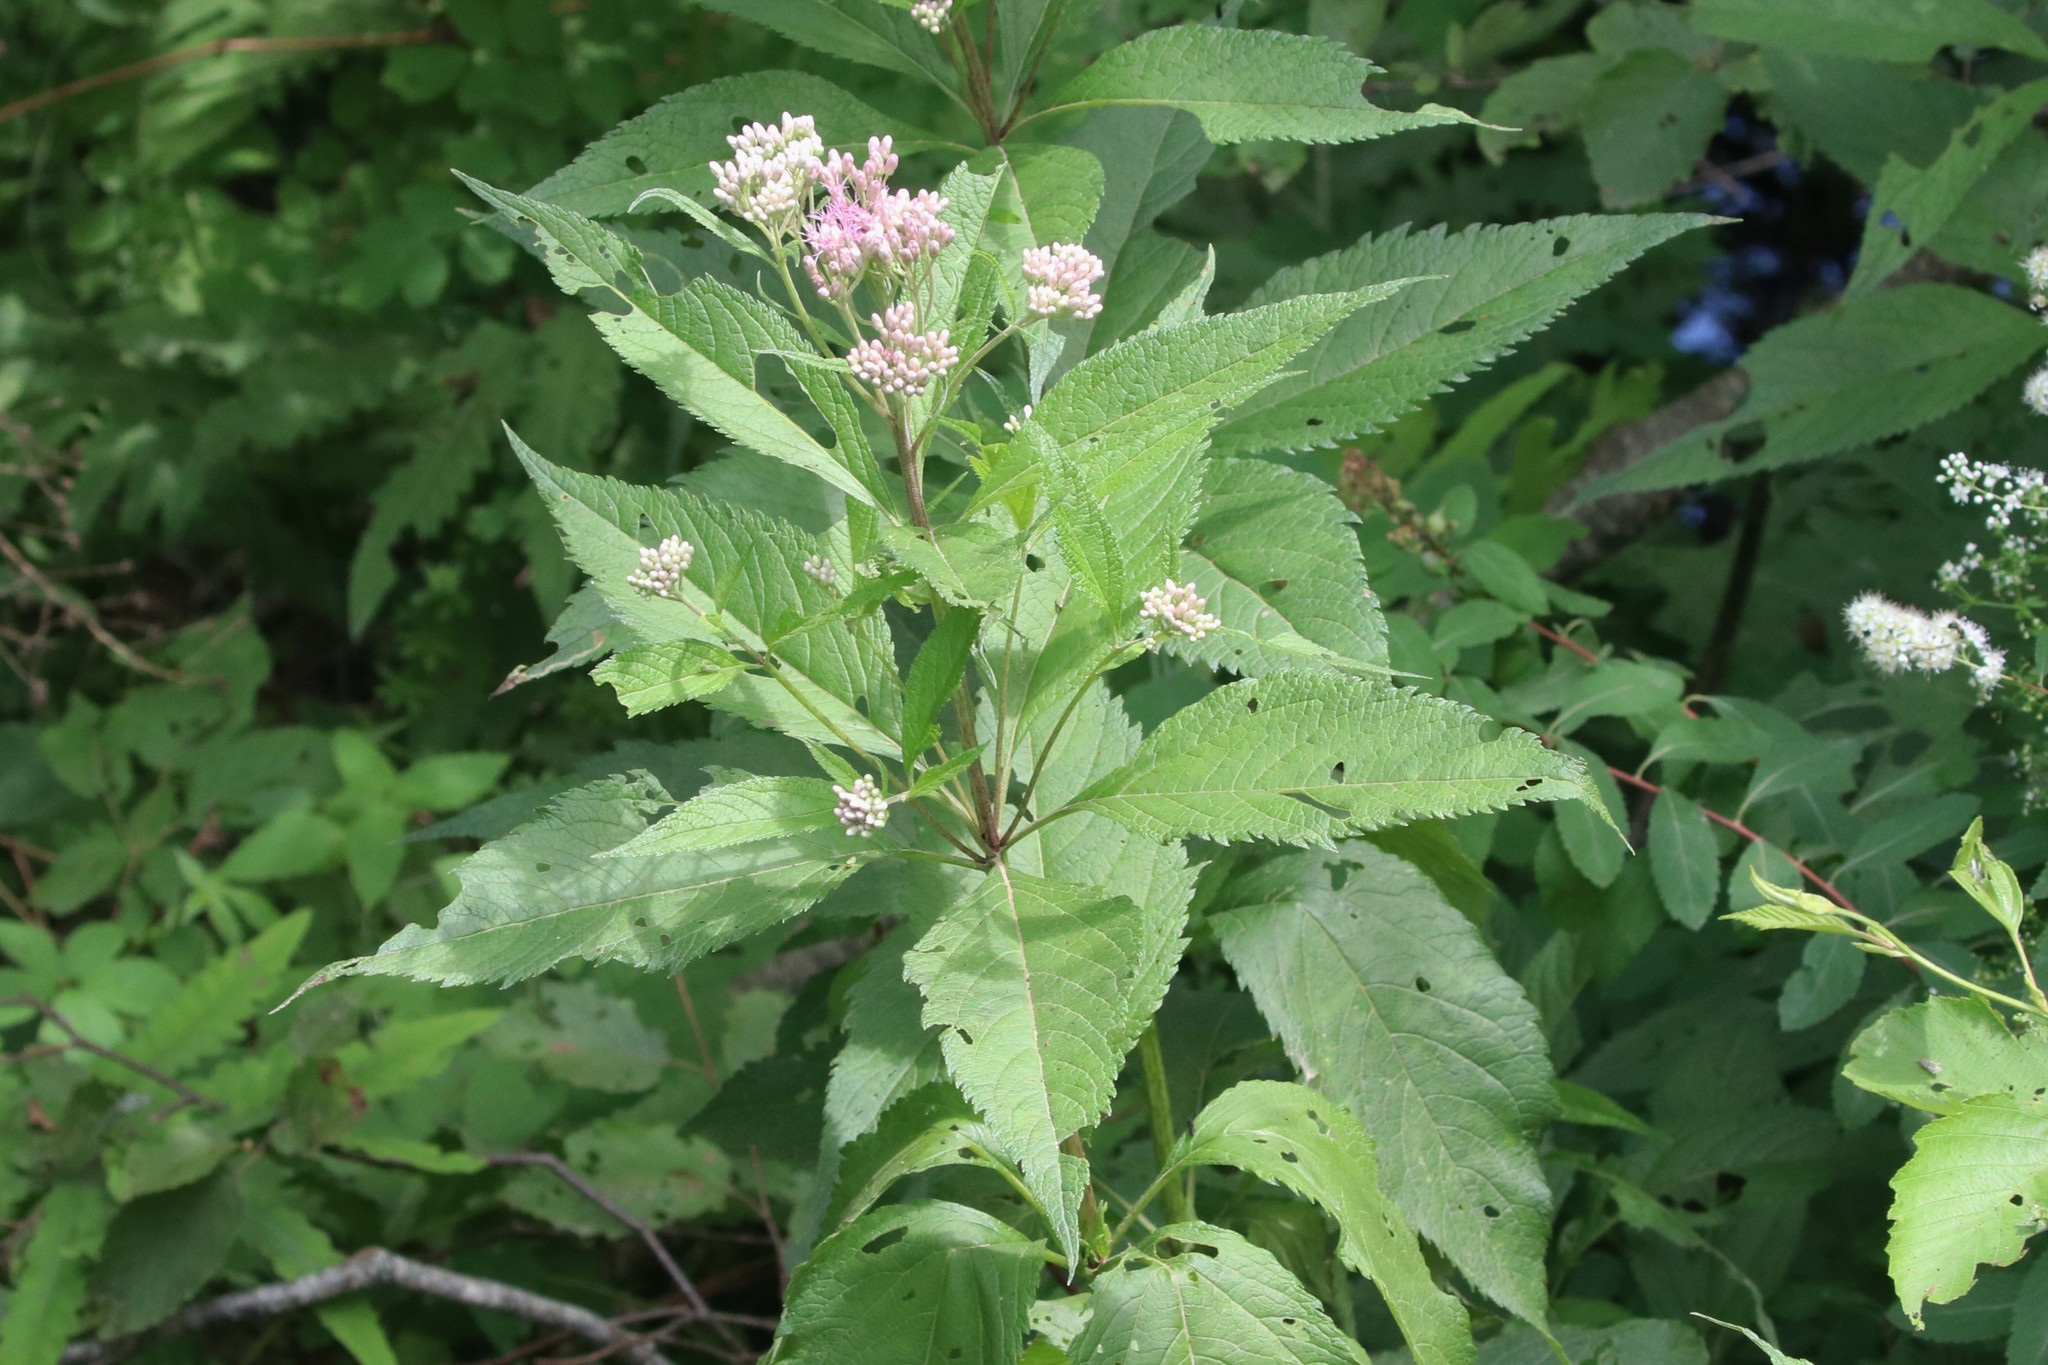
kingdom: Plantae
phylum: Tracheophyta
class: Magnoliopsida
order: Asterales
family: Asteraceae
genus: Eutrochium
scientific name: Eutrochium maculatum
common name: Spotted joe pye weed
